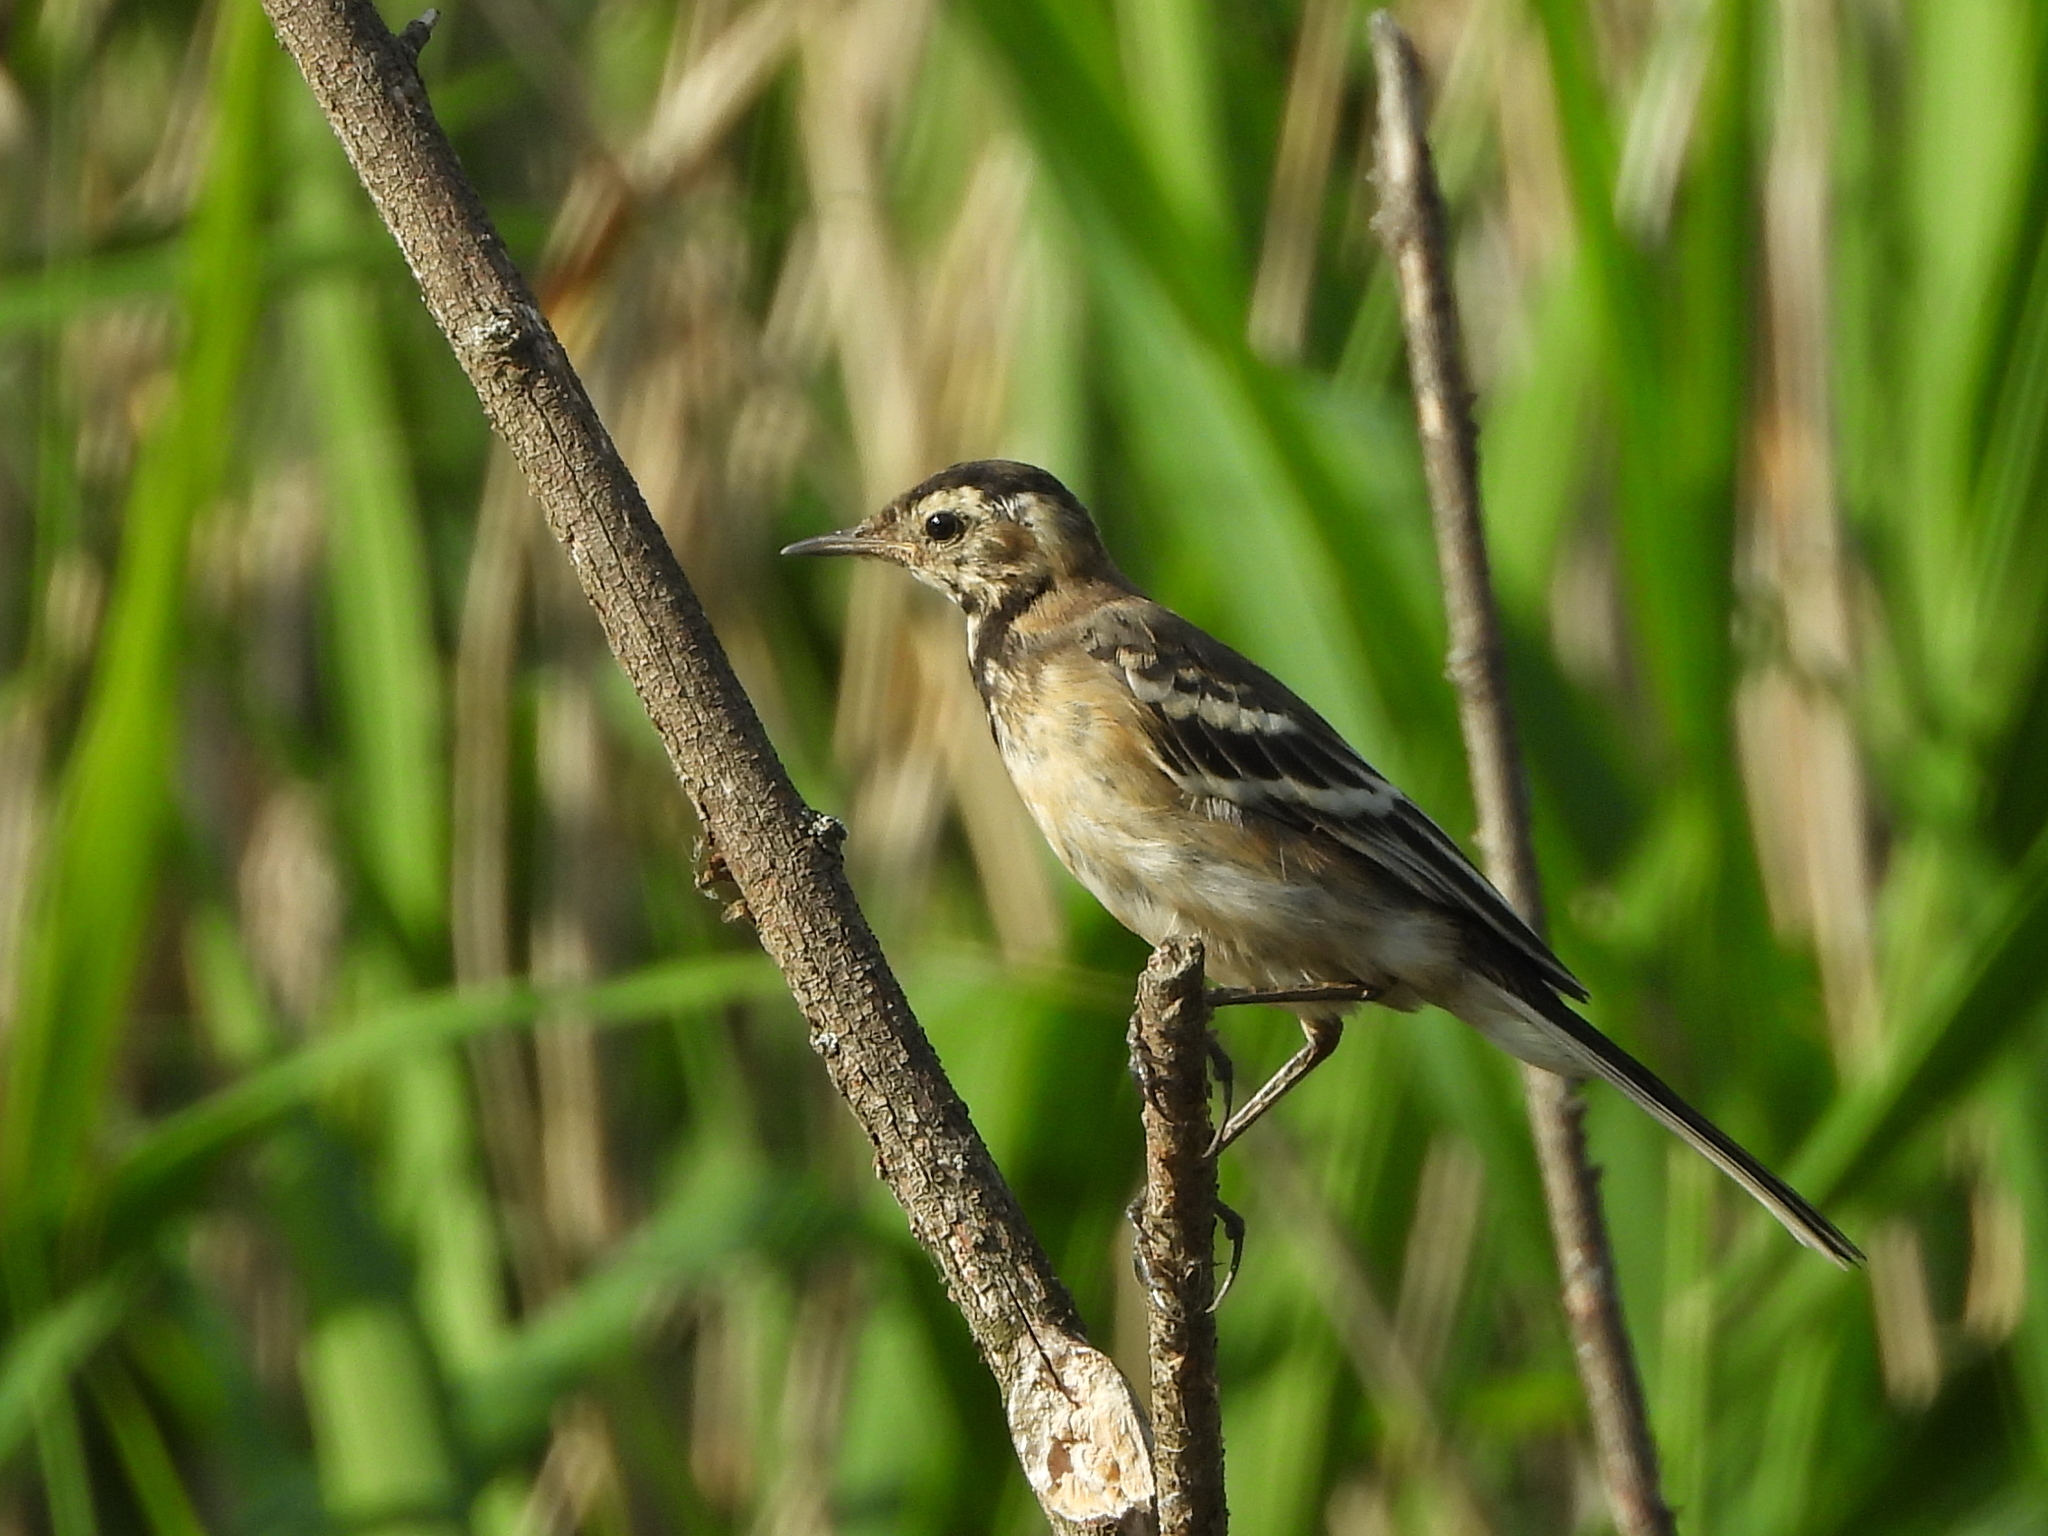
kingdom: Animalia
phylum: Chordata
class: Aves
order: Passeriformes
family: Motacillidae
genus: Motacilla
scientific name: Motacilla flava
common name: Western yellow wagtail
